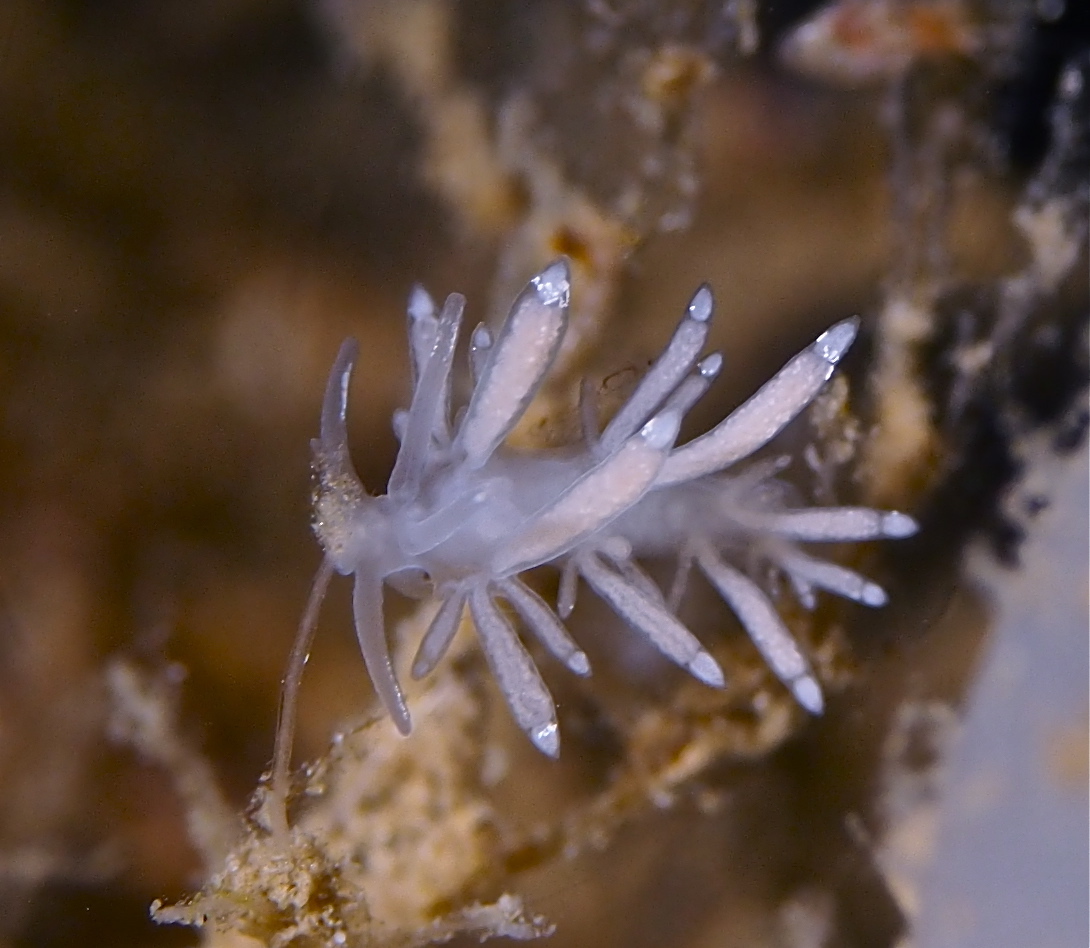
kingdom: Animalia
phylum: Mollusca
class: Gastropoda
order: Nudibranchia
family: Tergipedidae
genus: Tergipes
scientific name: Tergipes tergipes
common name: Johnston's balloon eolis
